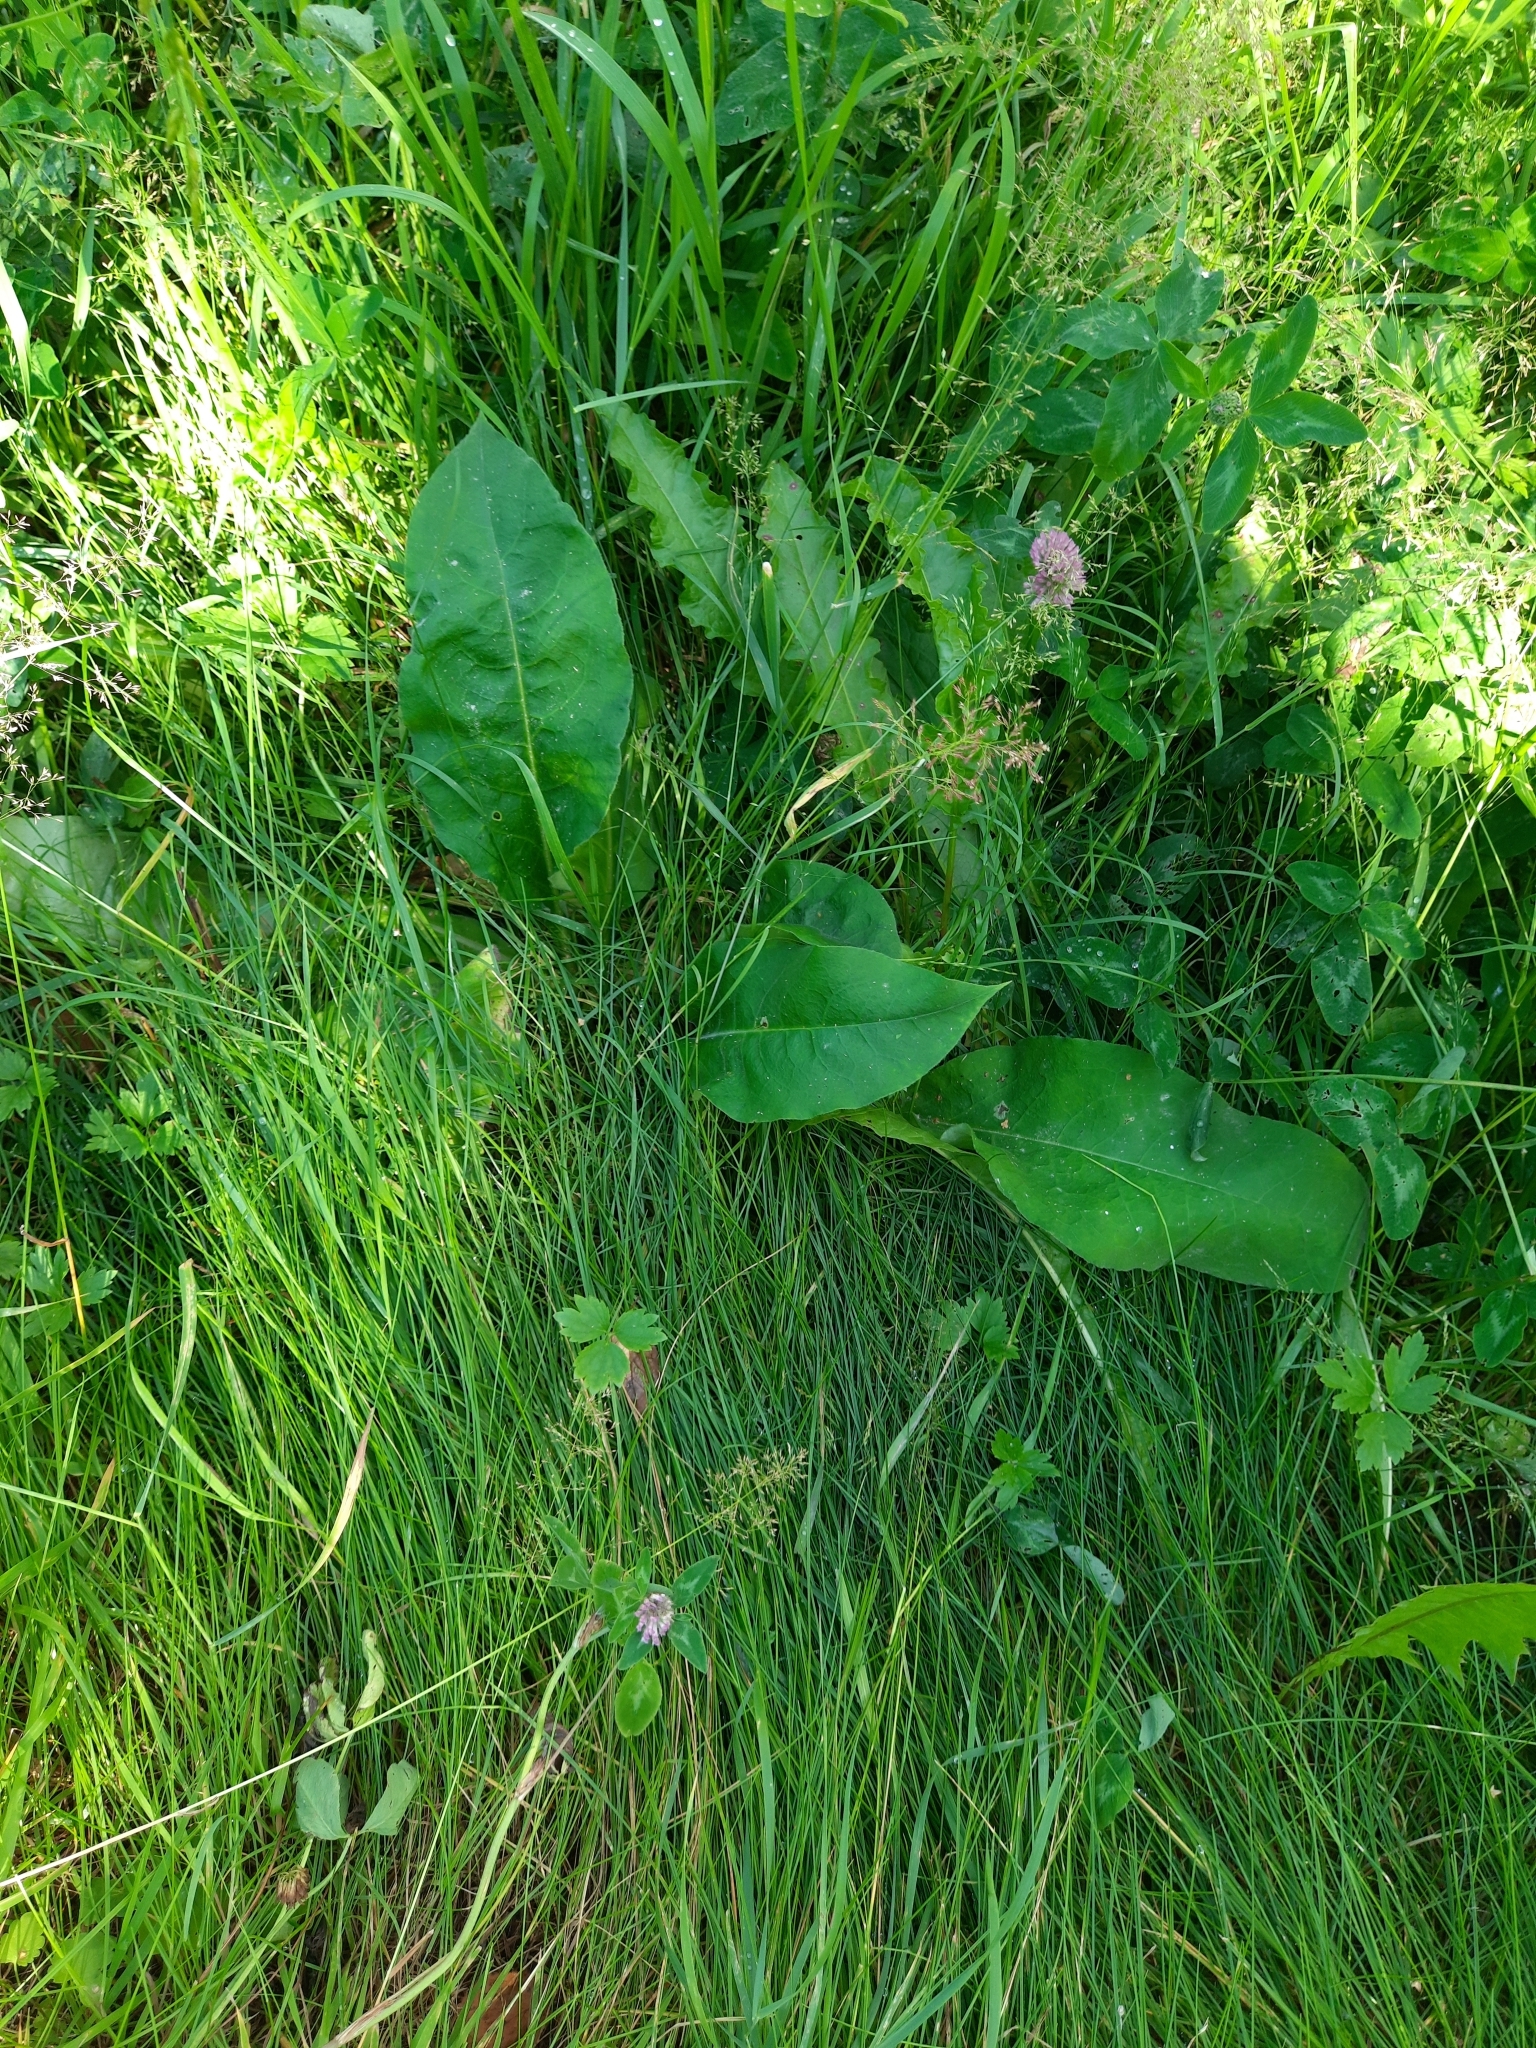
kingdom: Plantae
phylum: Tracheophyta
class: Magnoliopsida
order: Boraginales
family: Boraginaceae
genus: Pulmonaria
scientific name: Pulmonaria mollis
